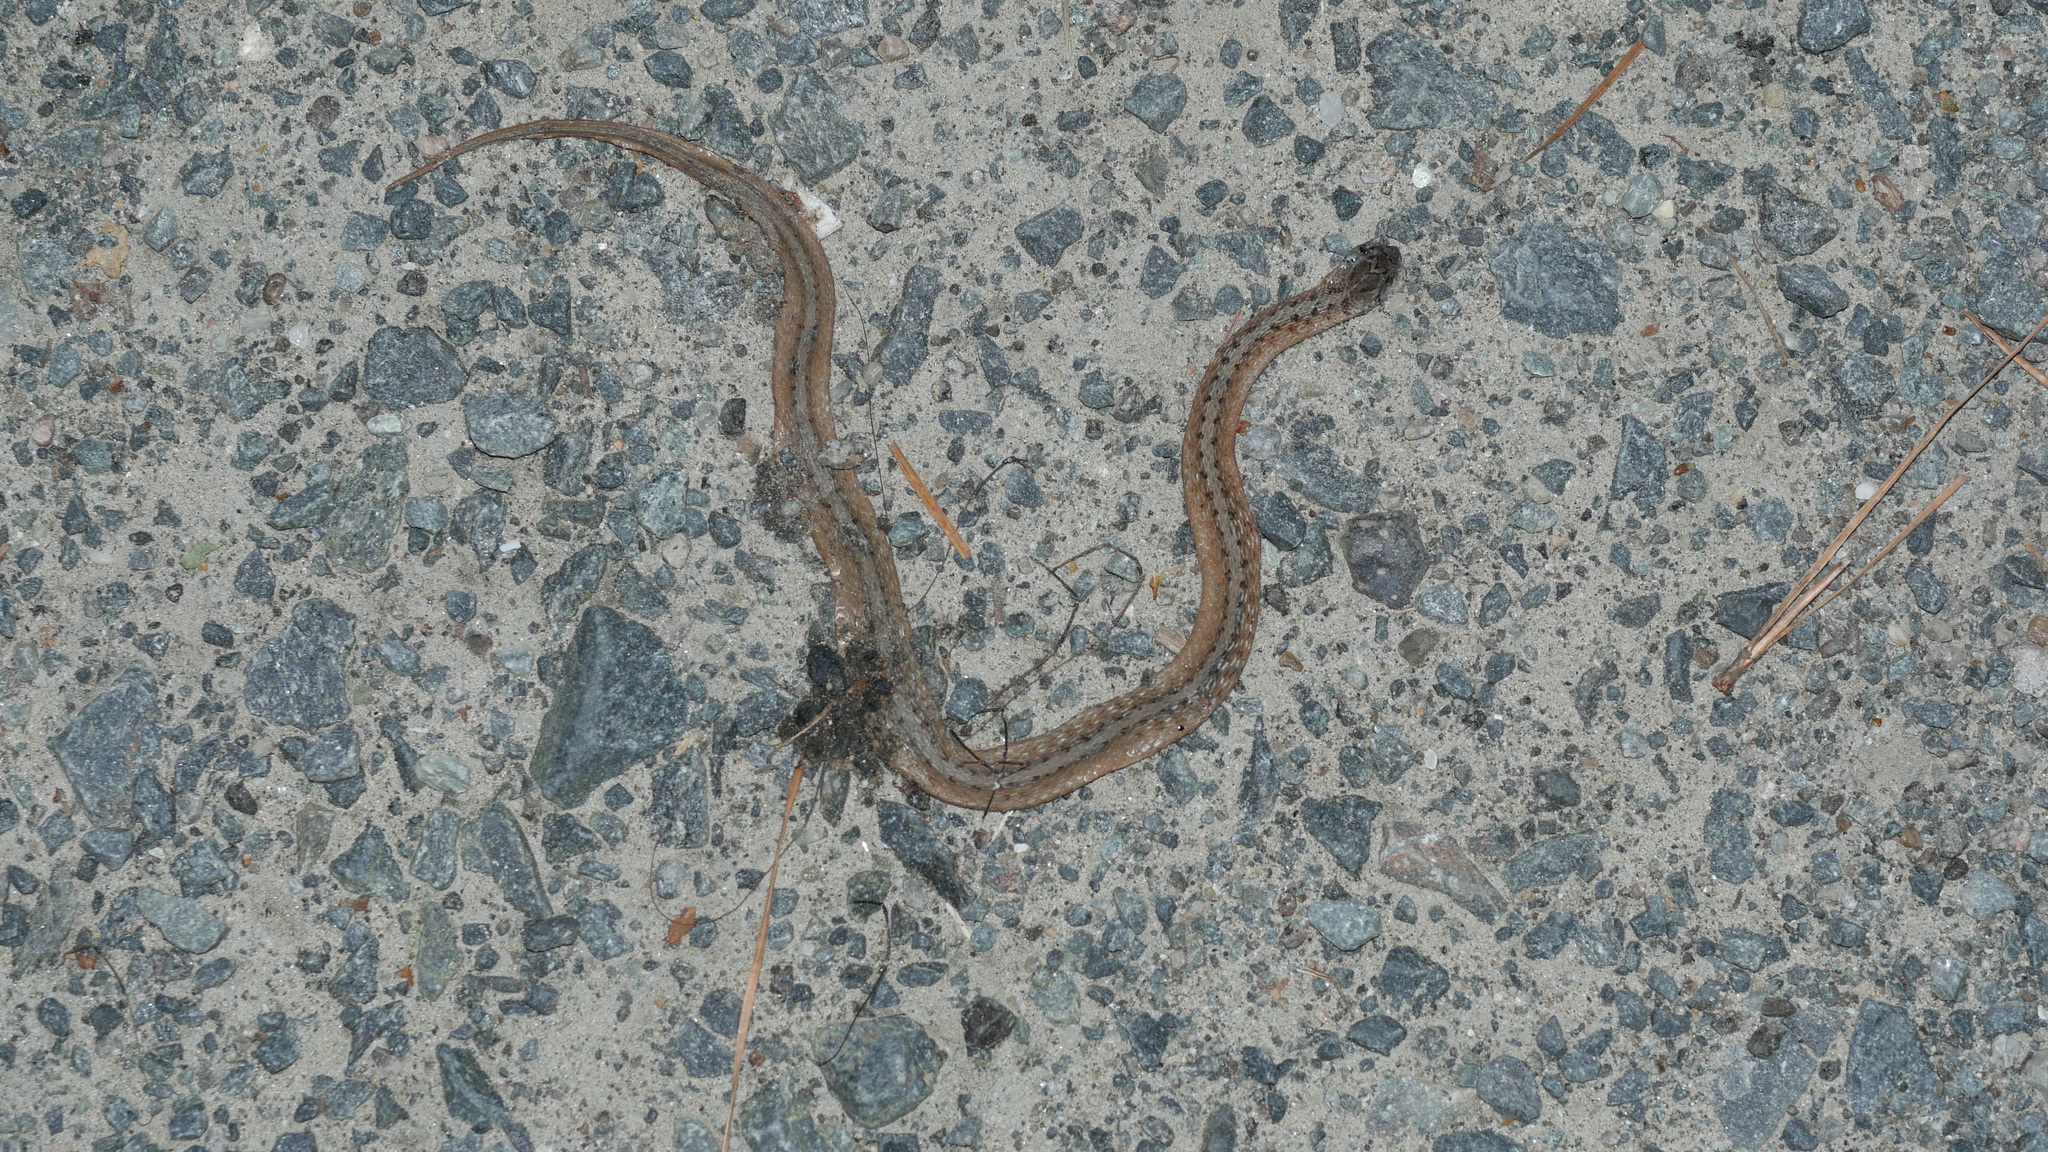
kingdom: Animalia
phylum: Chordata
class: Squamata
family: Colubridae
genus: Storeria
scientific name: Storeria dekayi
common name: (dekay’s) brown snake
